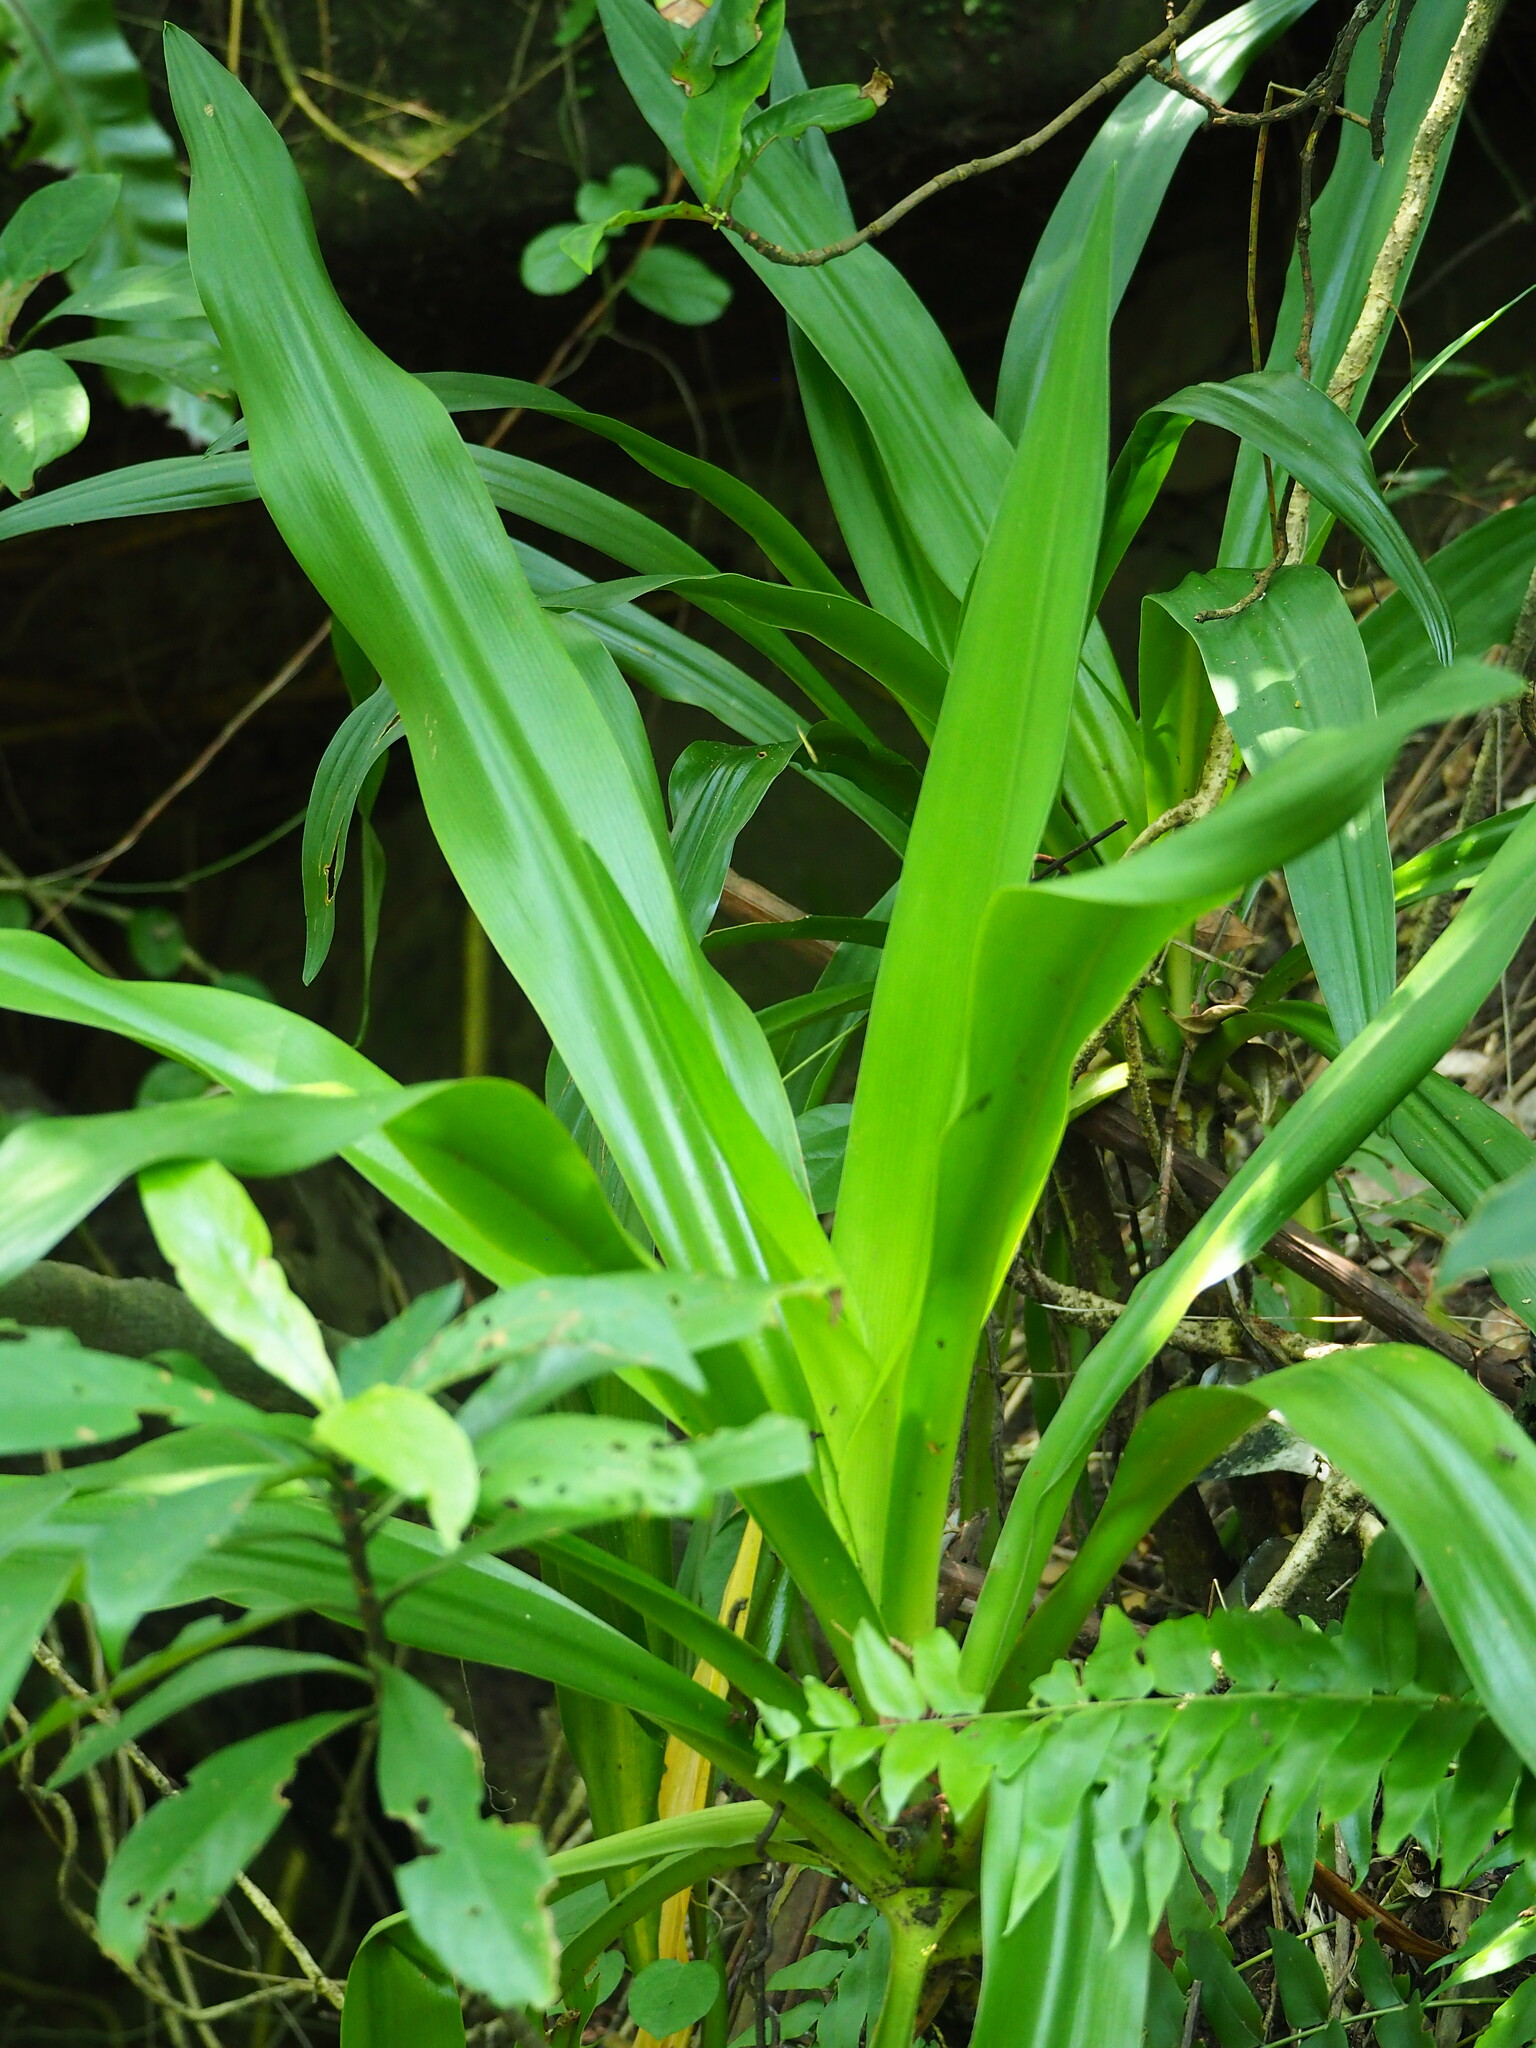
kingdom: Plantae
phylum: Tracheophyta
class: Liliopsida
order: Asparagales
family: Amaryllidaceae
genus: Crinum
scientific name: Crinum asiaticum
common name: Poisonbulb
